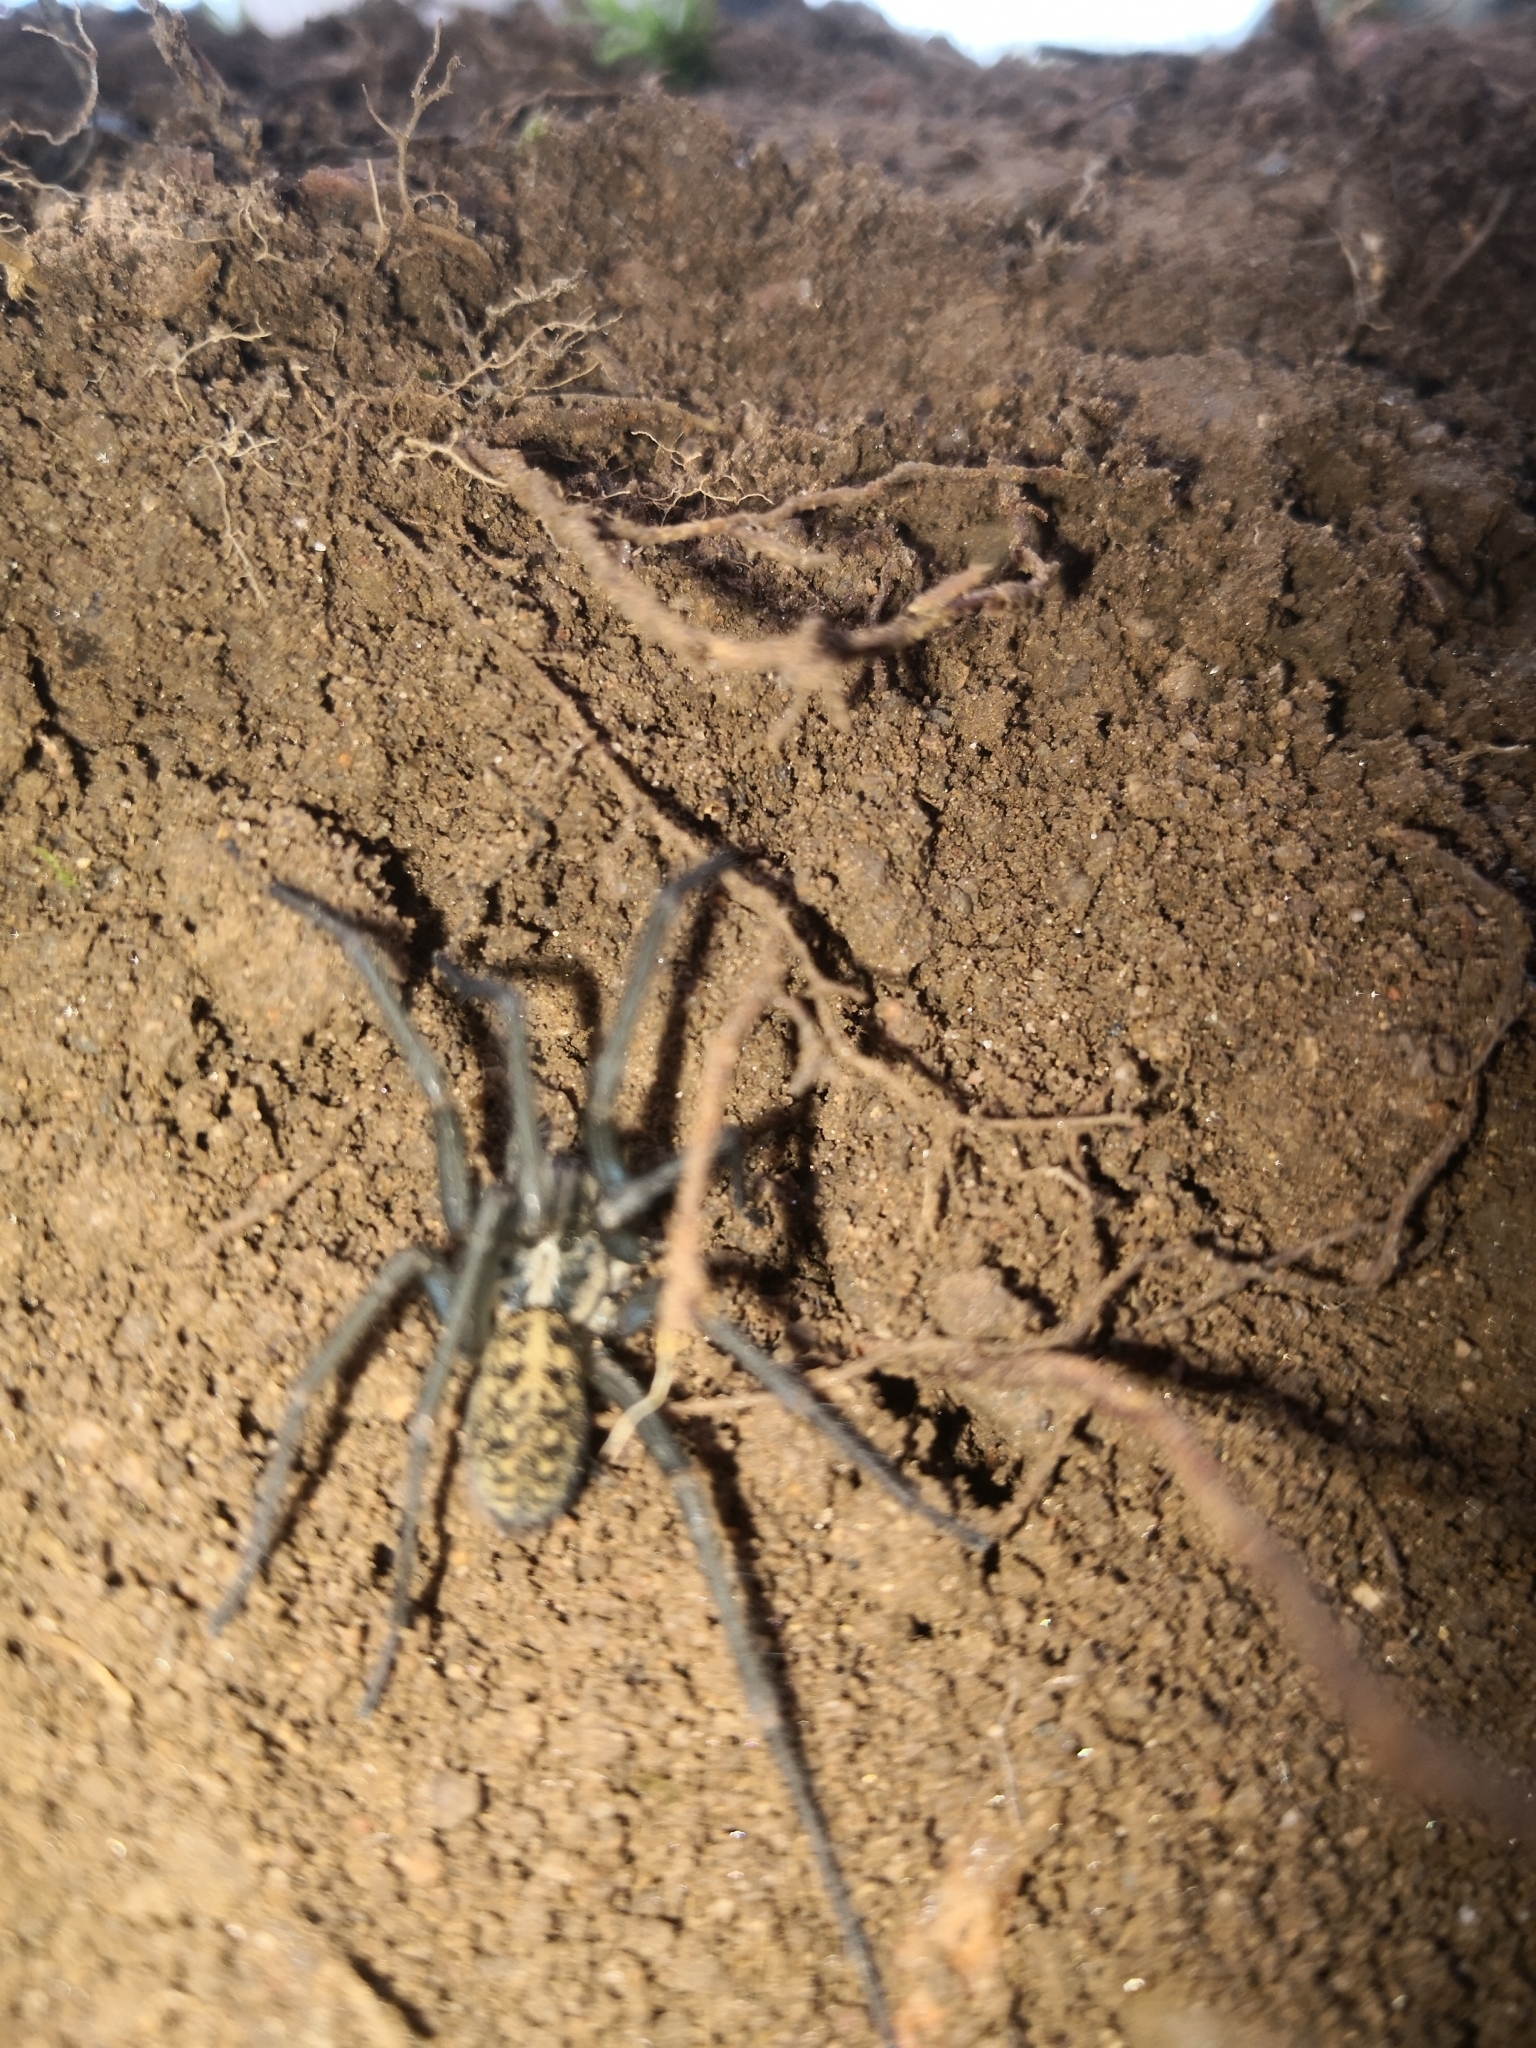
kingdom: Animalia
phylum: Arthropoda
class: Arachnida
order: Araneae
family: Agelenidae
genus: Eratigena
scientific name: Eratigena duellica
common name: Giant house spider
